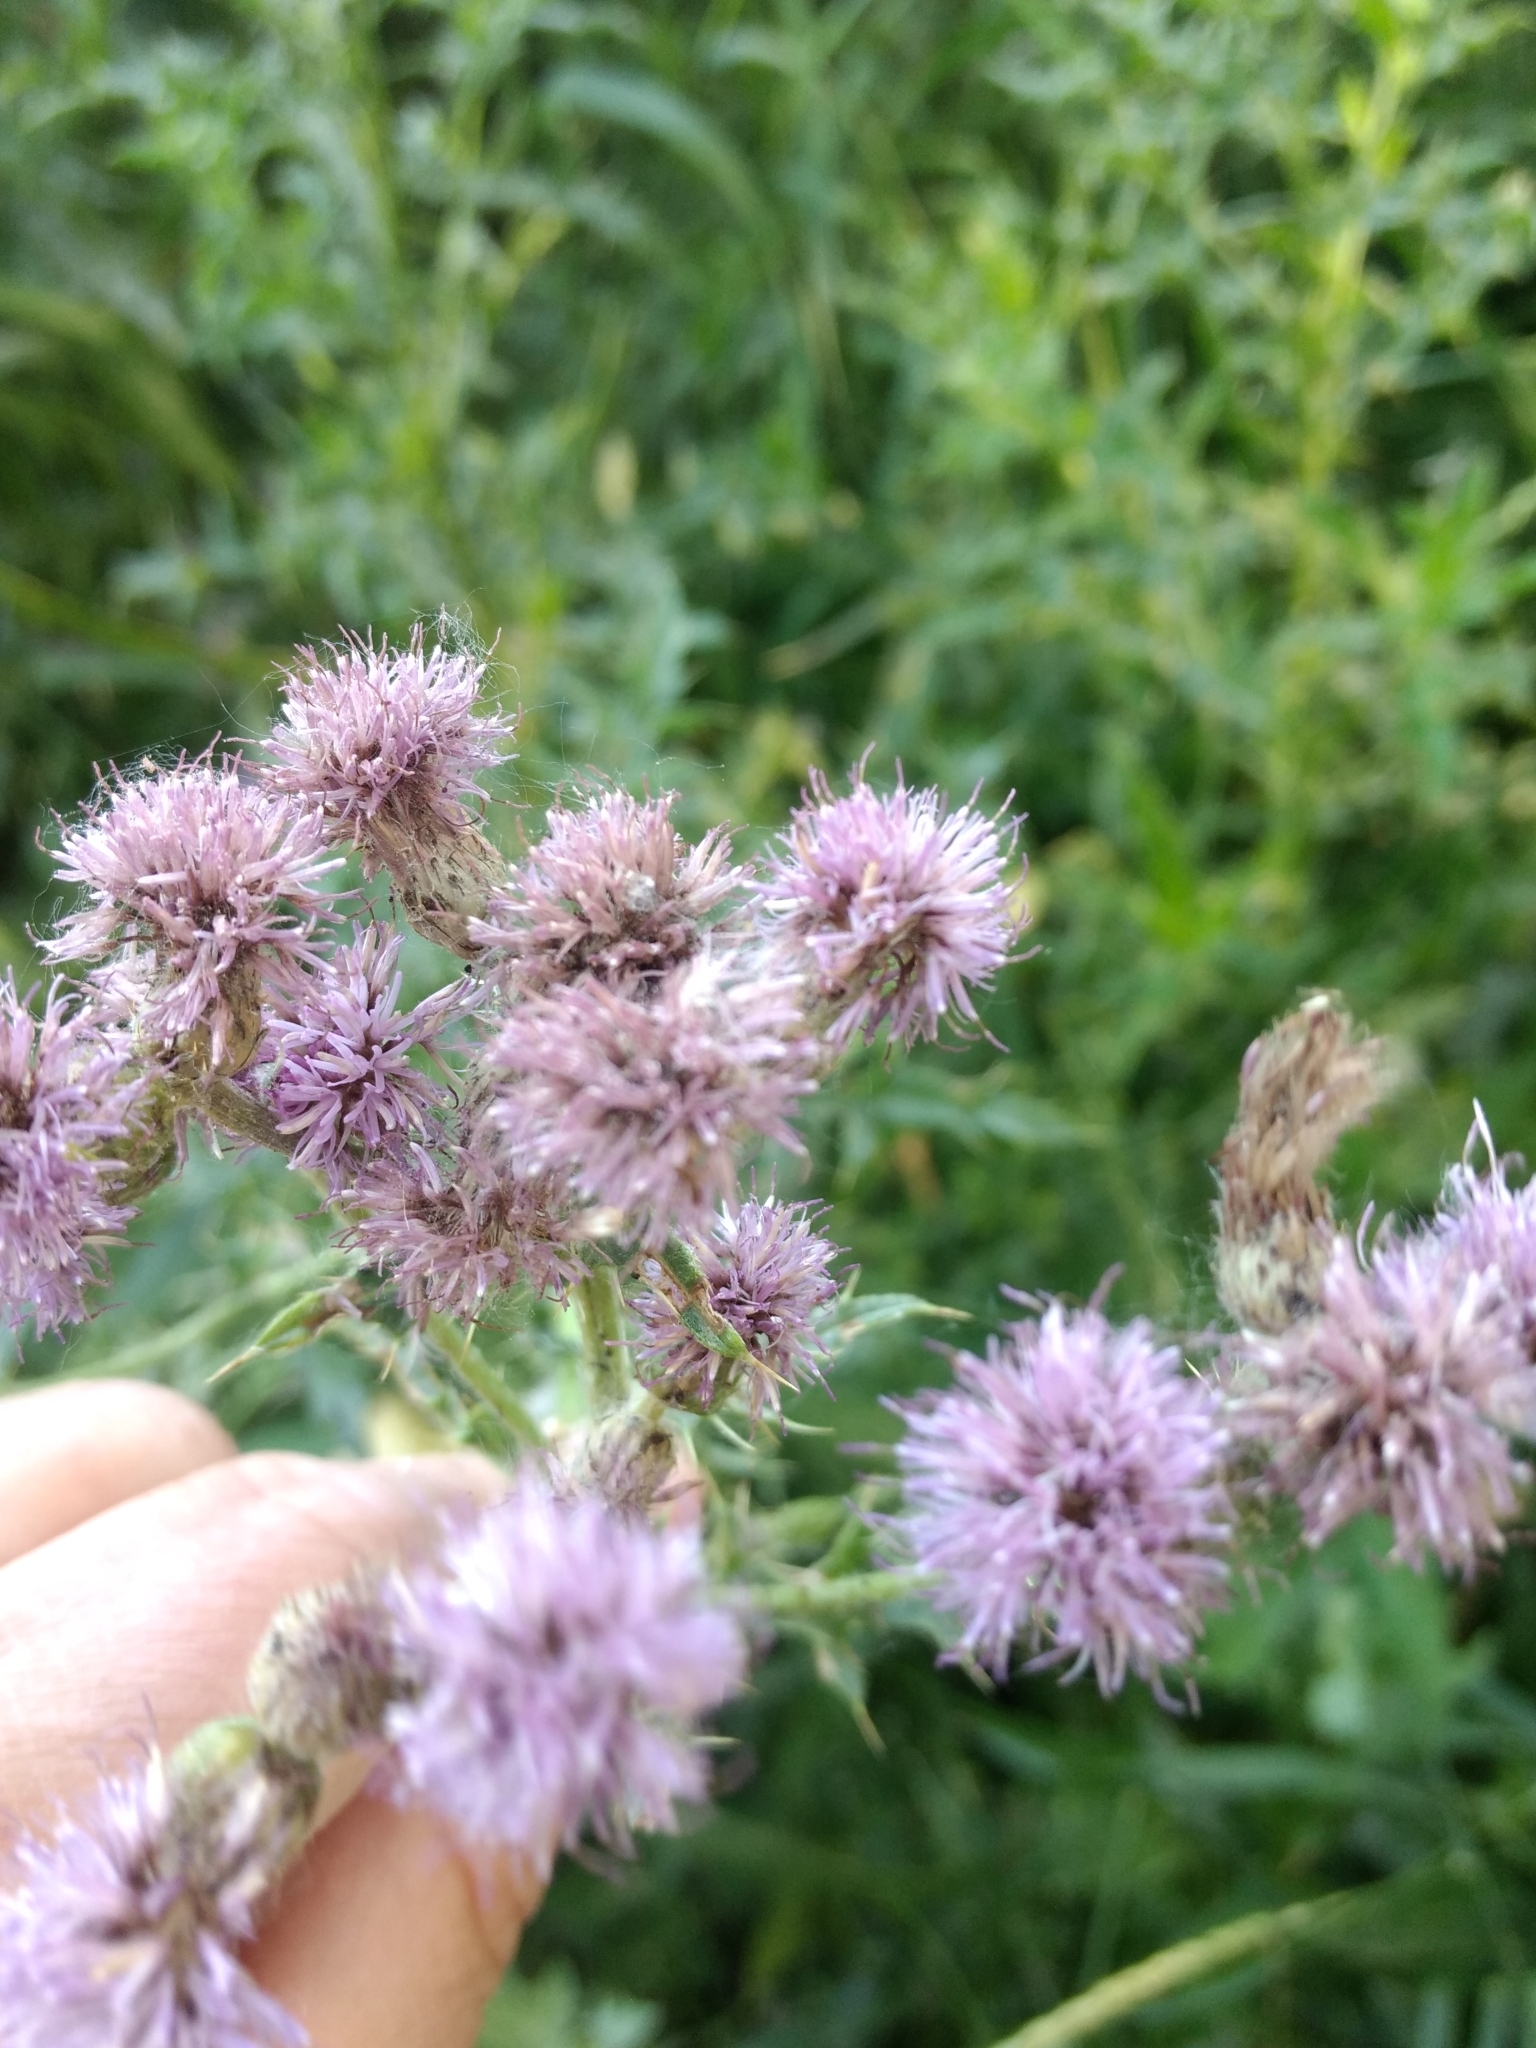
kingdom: Plantae
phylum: Tracheophyta
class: Magnoliopsida
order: Asterales
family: Asteraceae
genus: Cirsium
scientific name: Cirsium arvense
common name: Creeping thistle
